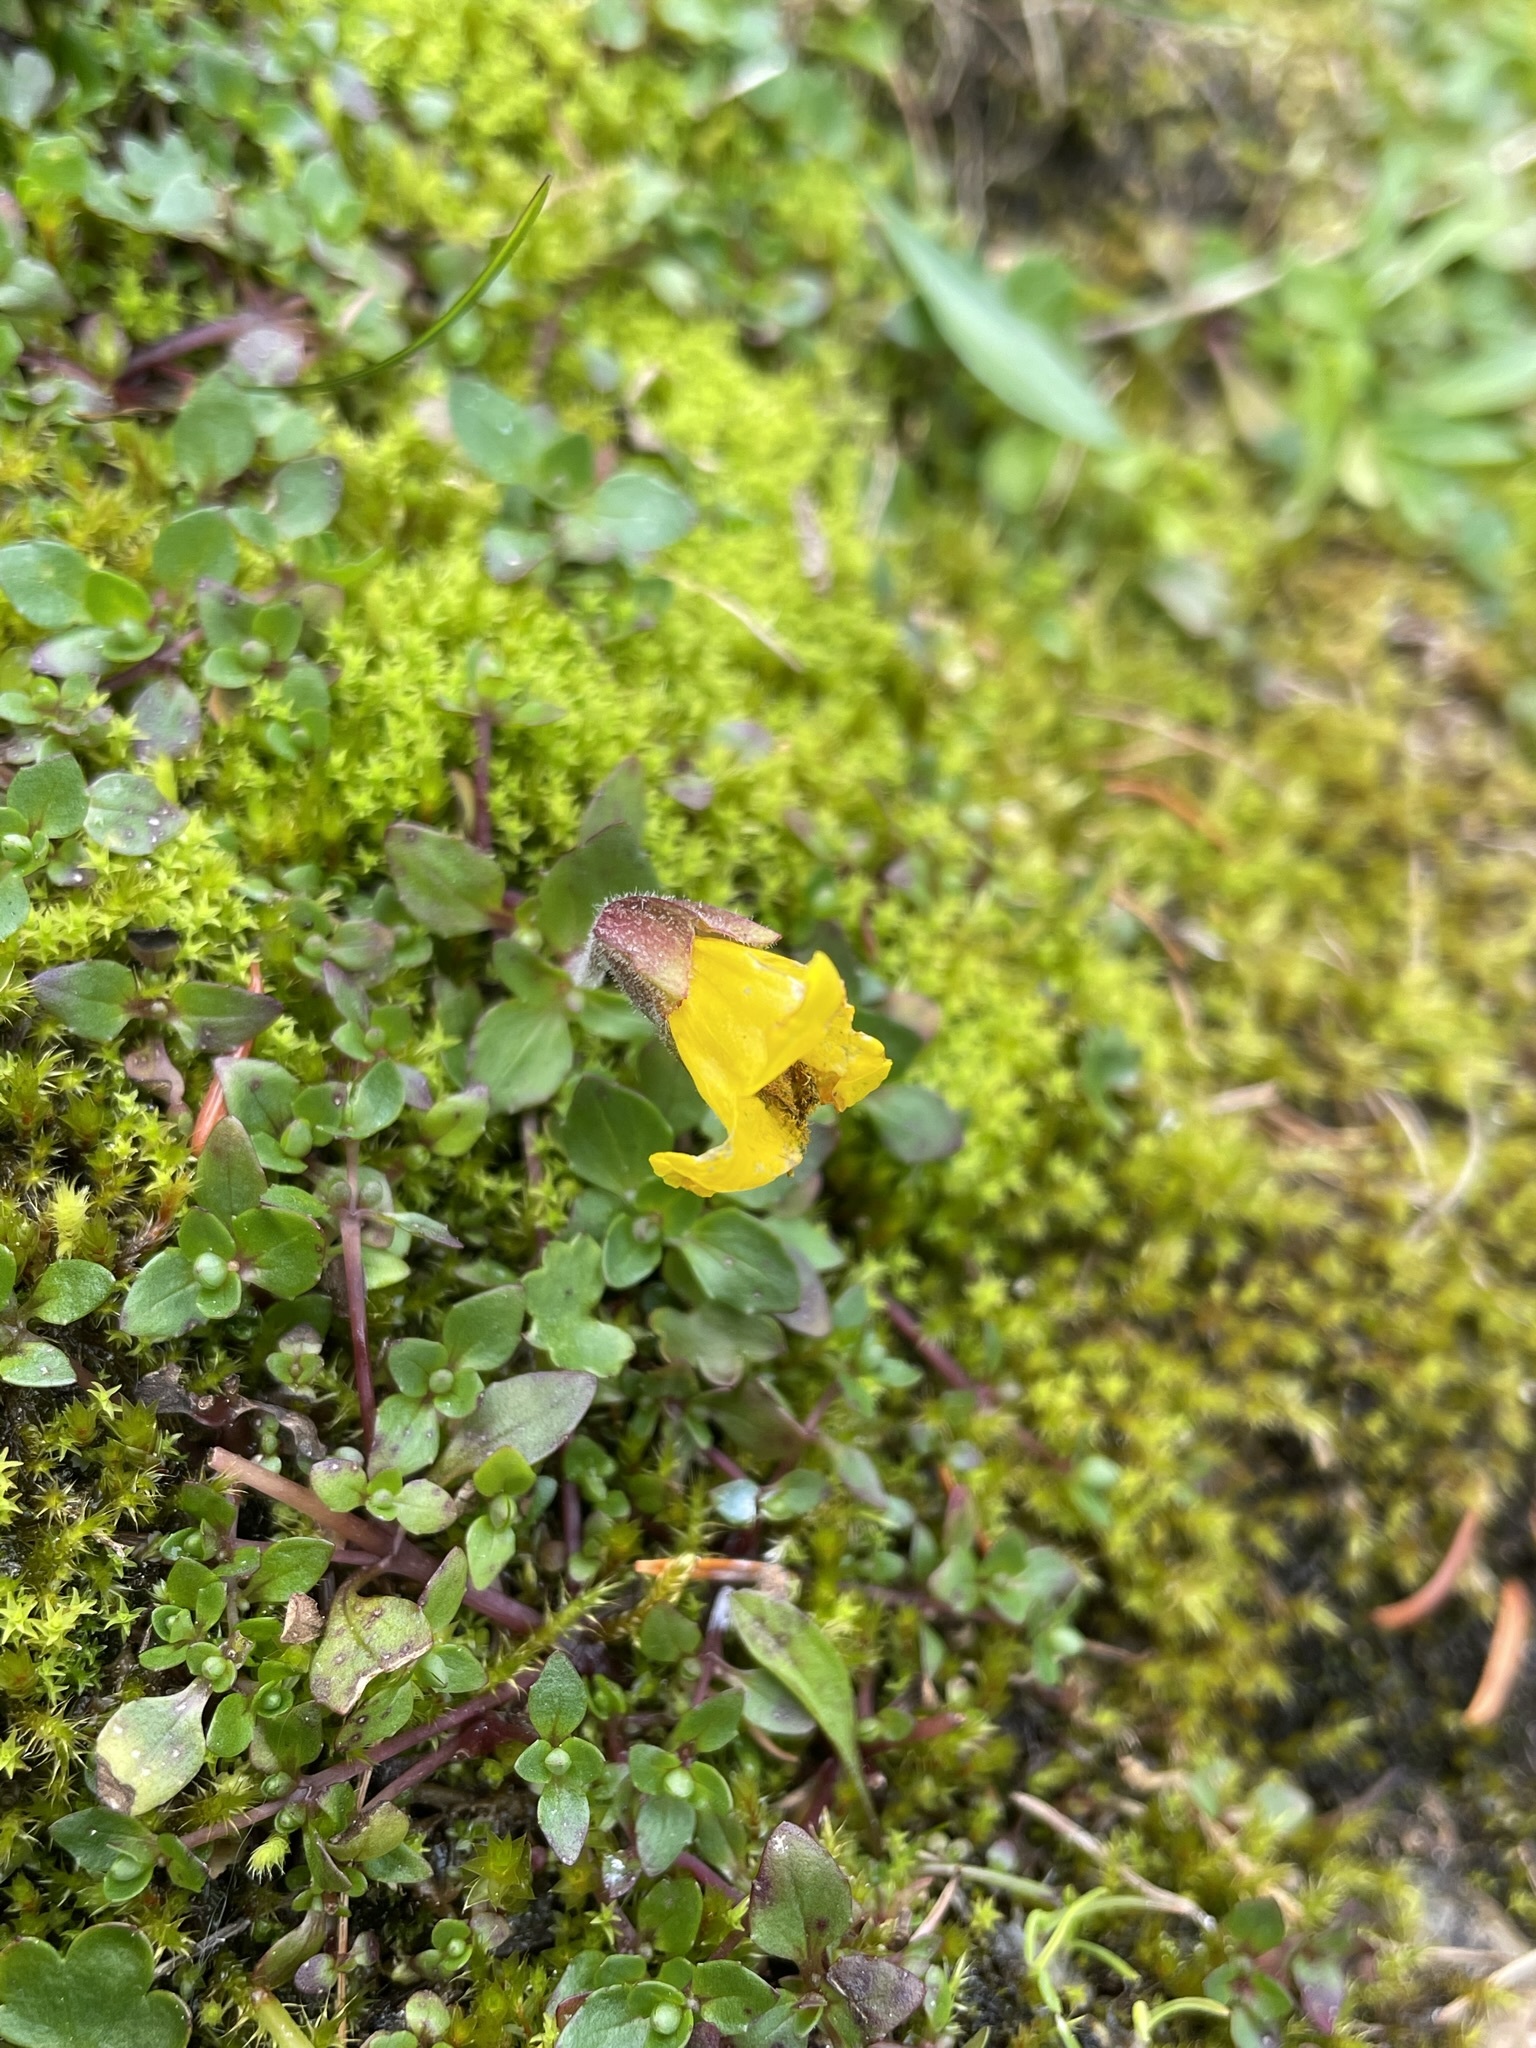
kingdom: Plantae
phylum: Tracheophyta
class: Magnoliopsida
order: Lamiales
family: Phrymaceae
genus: Erythranthe
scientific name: Erythranthe caespitosa
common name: Subalpine monkeyflower
